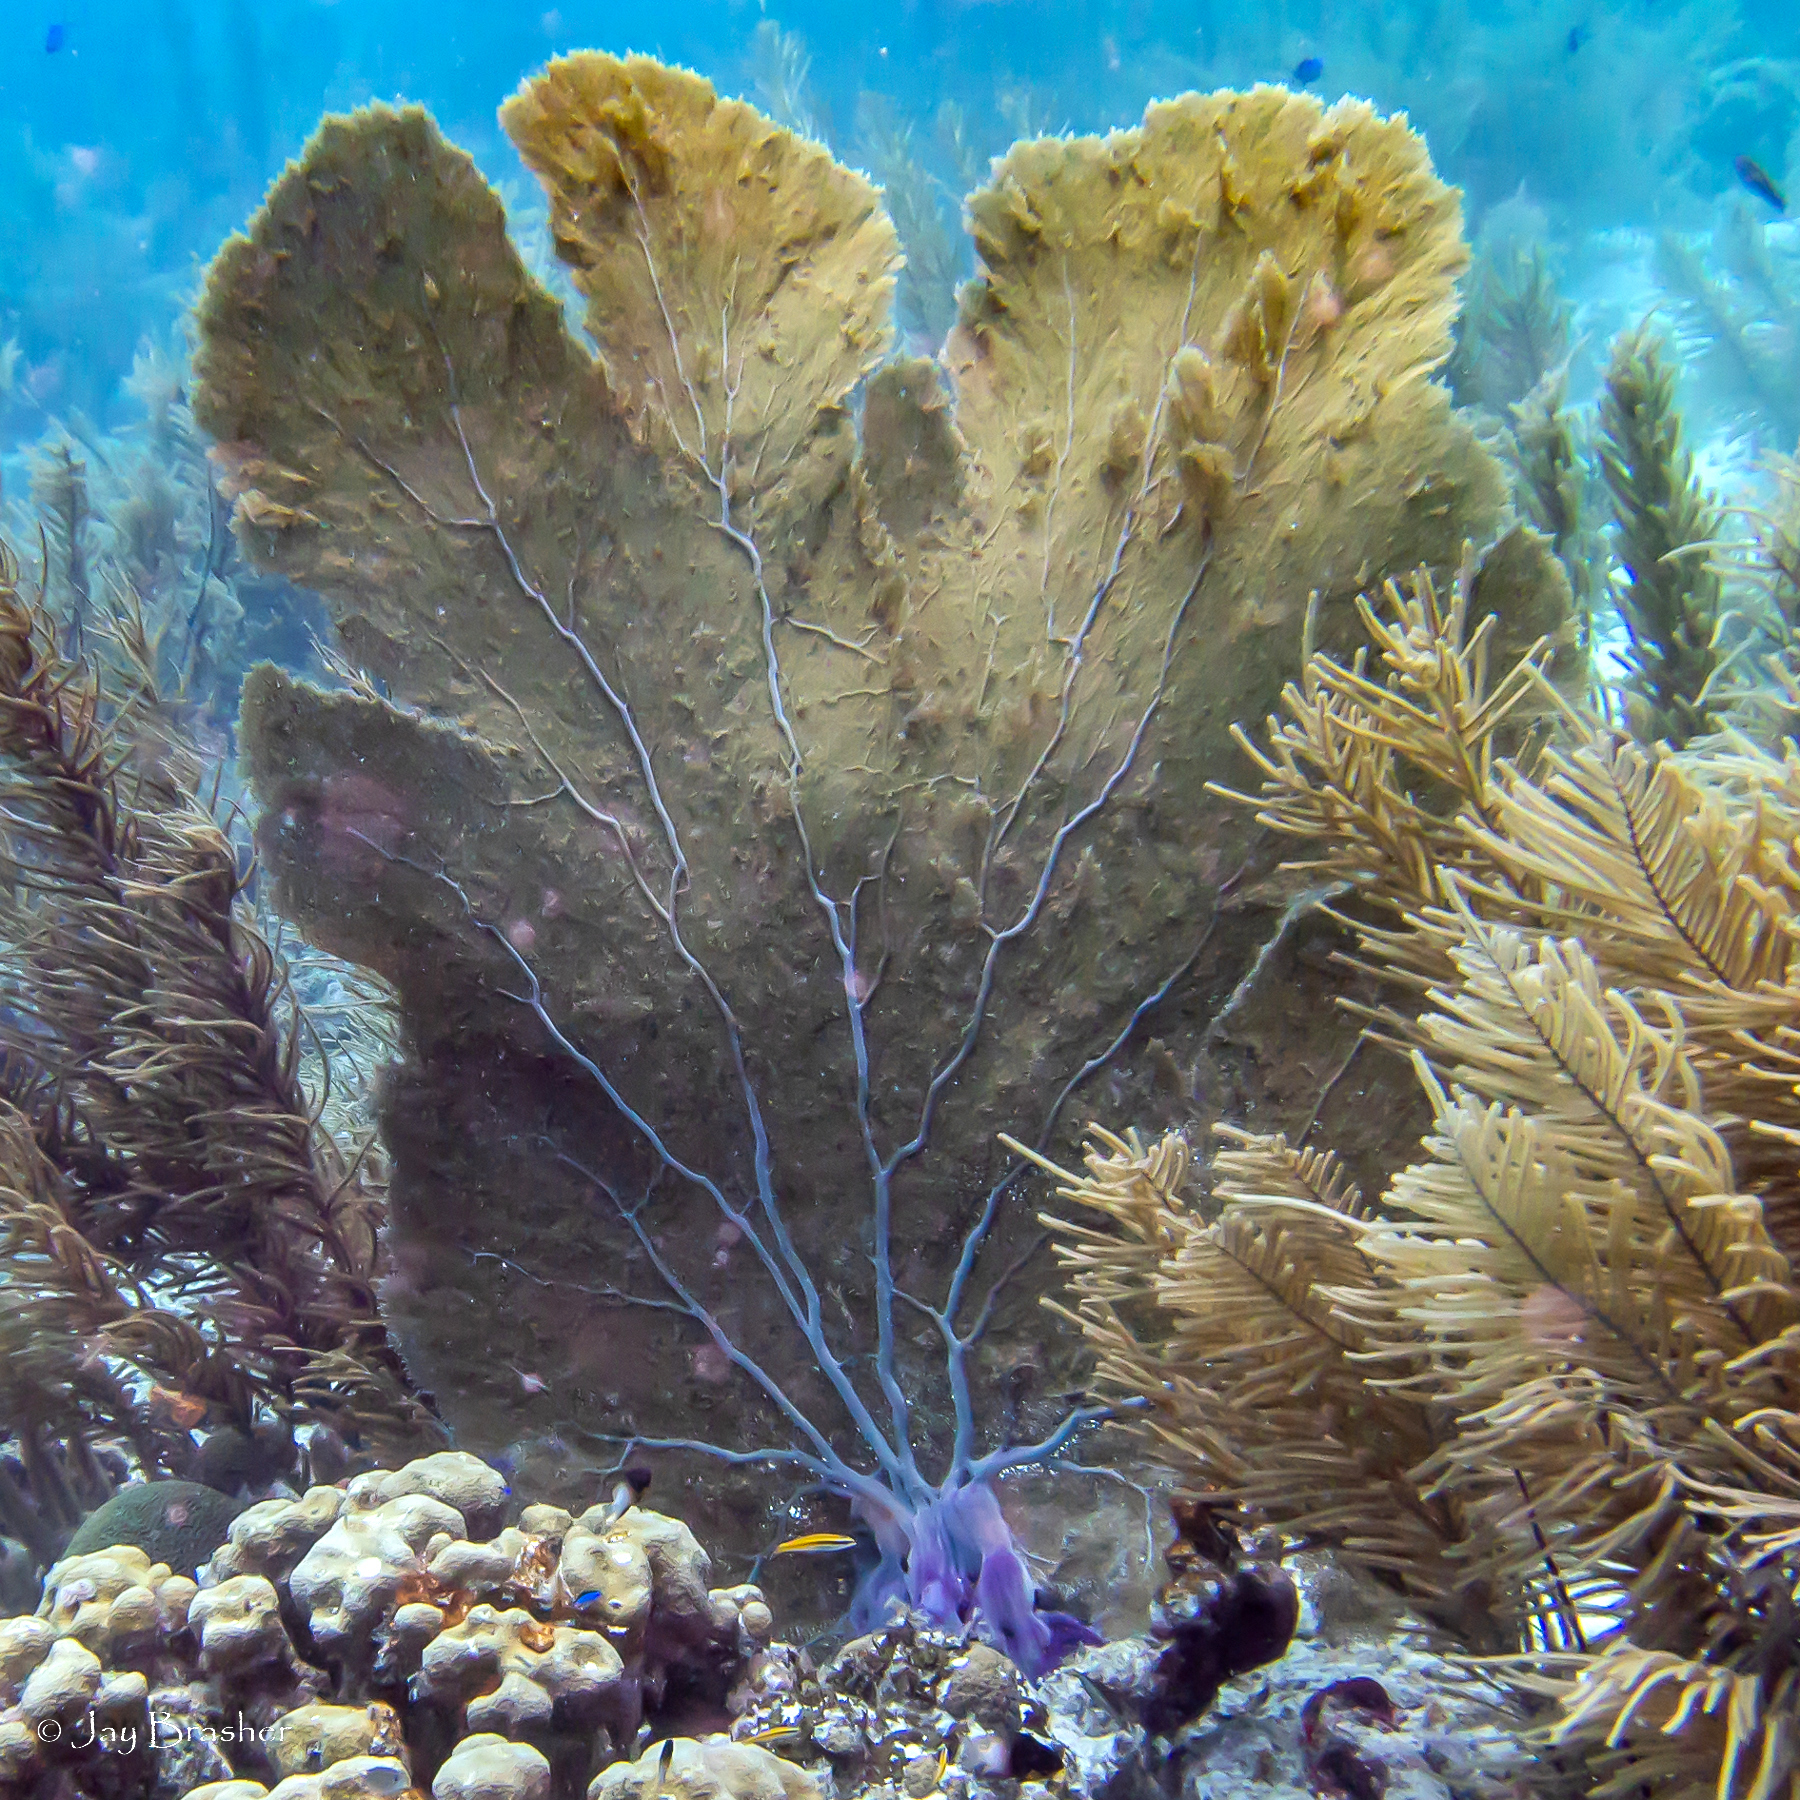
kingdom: Animalia
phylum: Cnidaria
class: Anthozoa
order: Malacalcyonacea
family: Gorgoniidae
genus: Gorgonia
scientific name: Gorgonia ventalina
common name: Common sea fan
